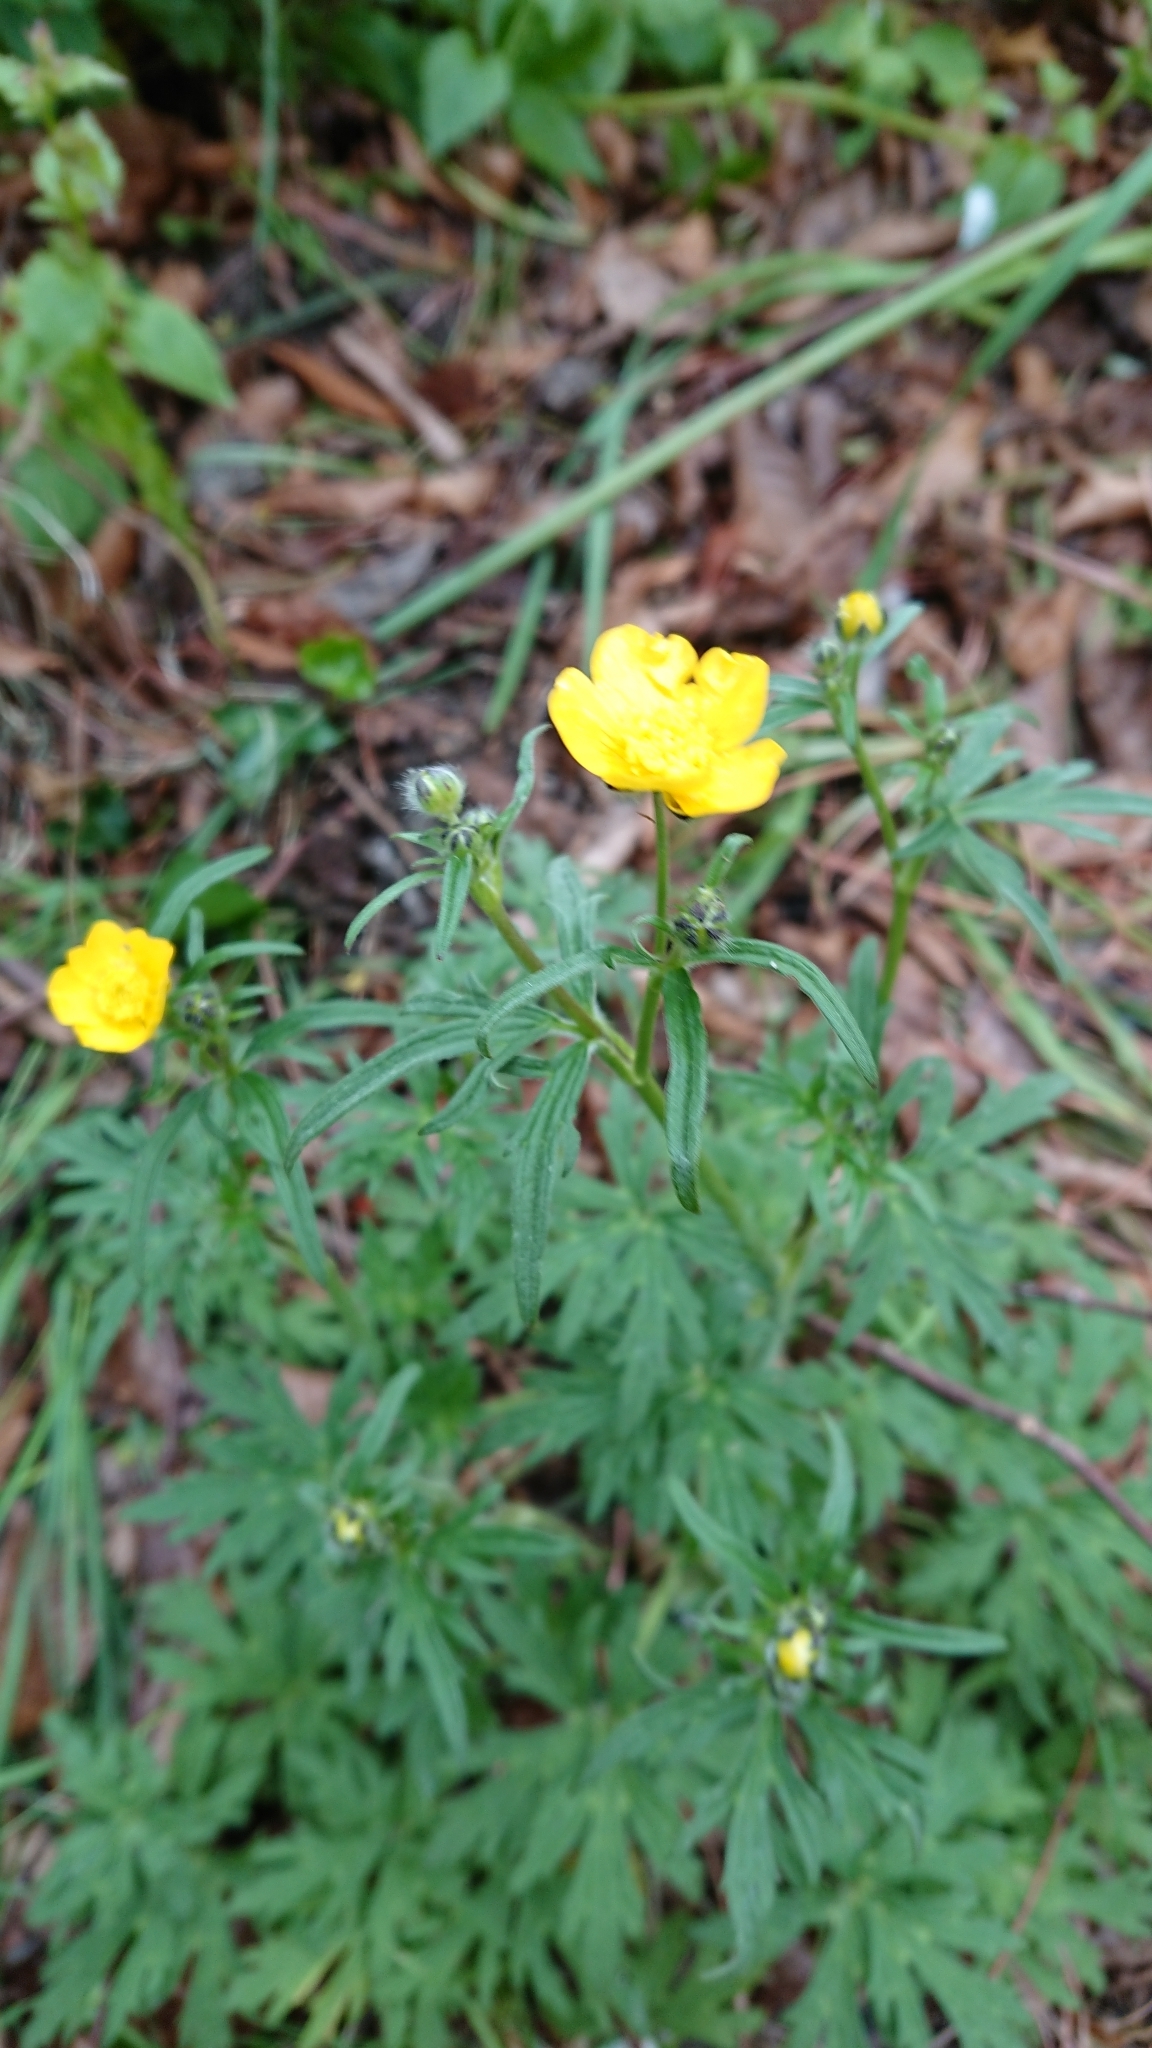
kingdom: Plantae
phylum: Tracheophyta
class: Magnoliopsida
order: Ranunculales
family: Ranunculaceae
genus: Ranunculus
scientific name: Ranunculus acris
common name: Meadow buttercup
